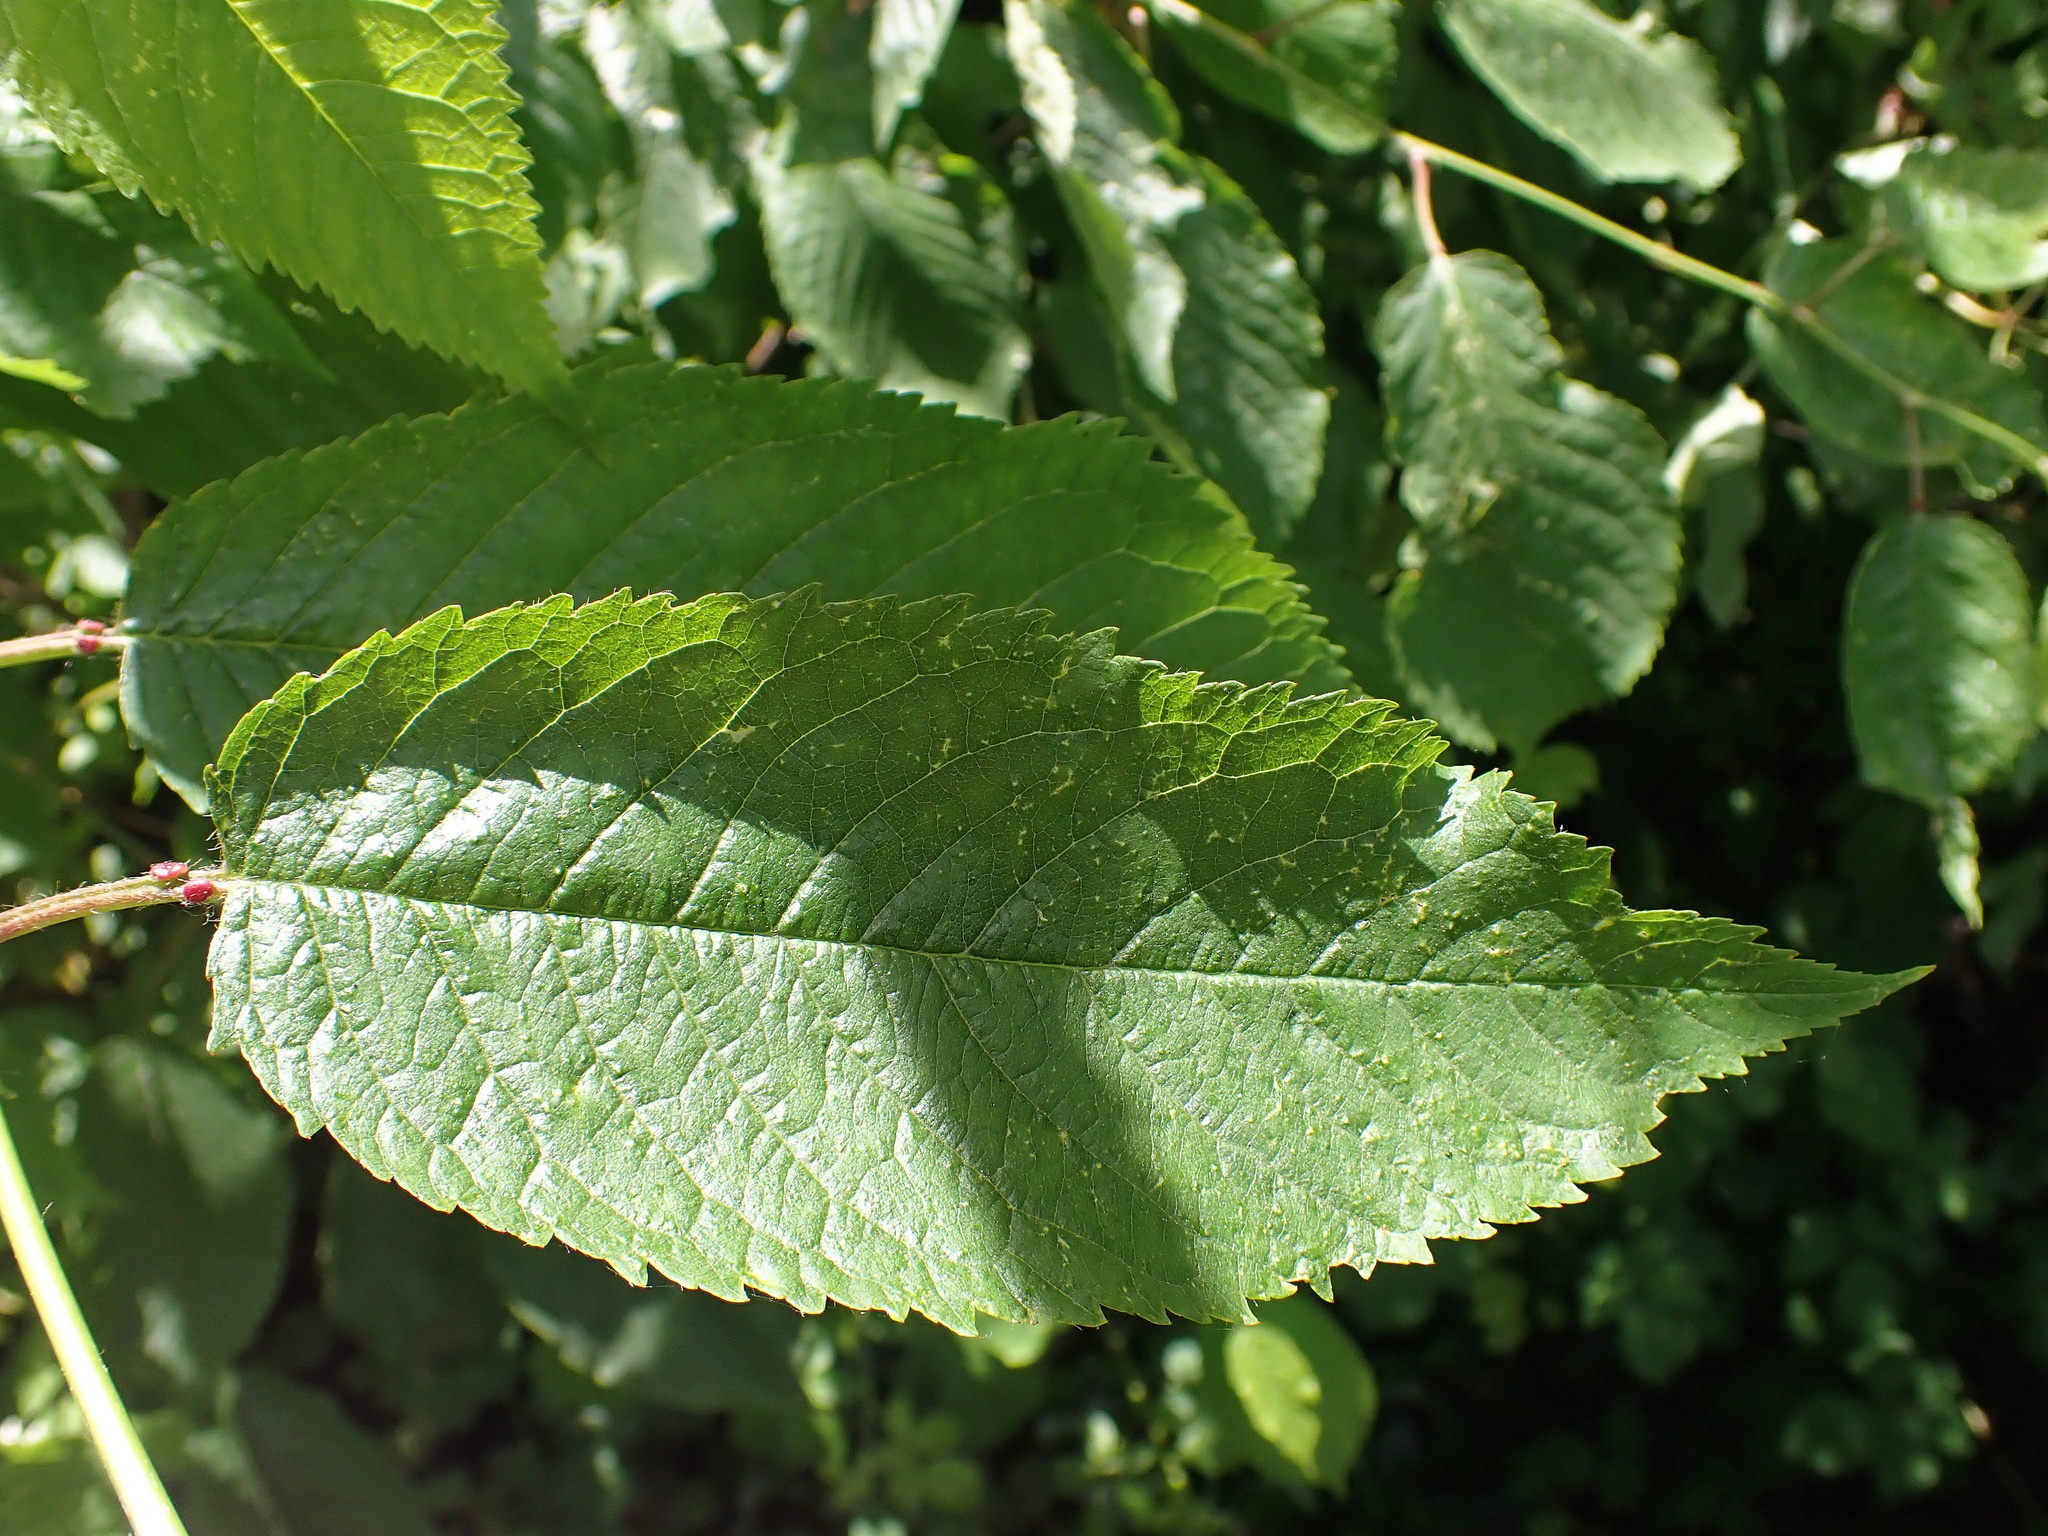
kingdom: Plantae
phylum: Tracheophyta
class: Magnoliopsida
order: Rosales
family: Rosaceae
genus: Prunus
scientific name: Prunus avium
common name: Sweet cherry
